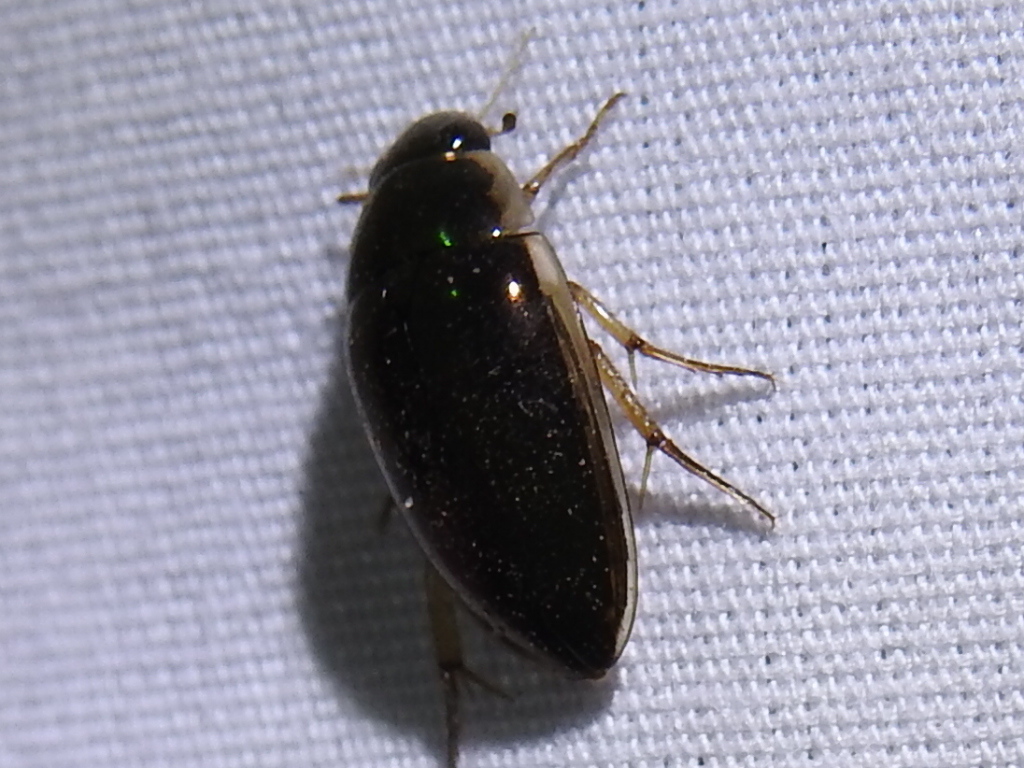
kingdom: Animalia
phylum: Arthropoda
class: Insecta
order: Coleoptera
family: Hydrophilidae
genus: Tropisternus
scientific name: Tropisternus lateralis
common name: Lateral-banded water scavenger beetle
